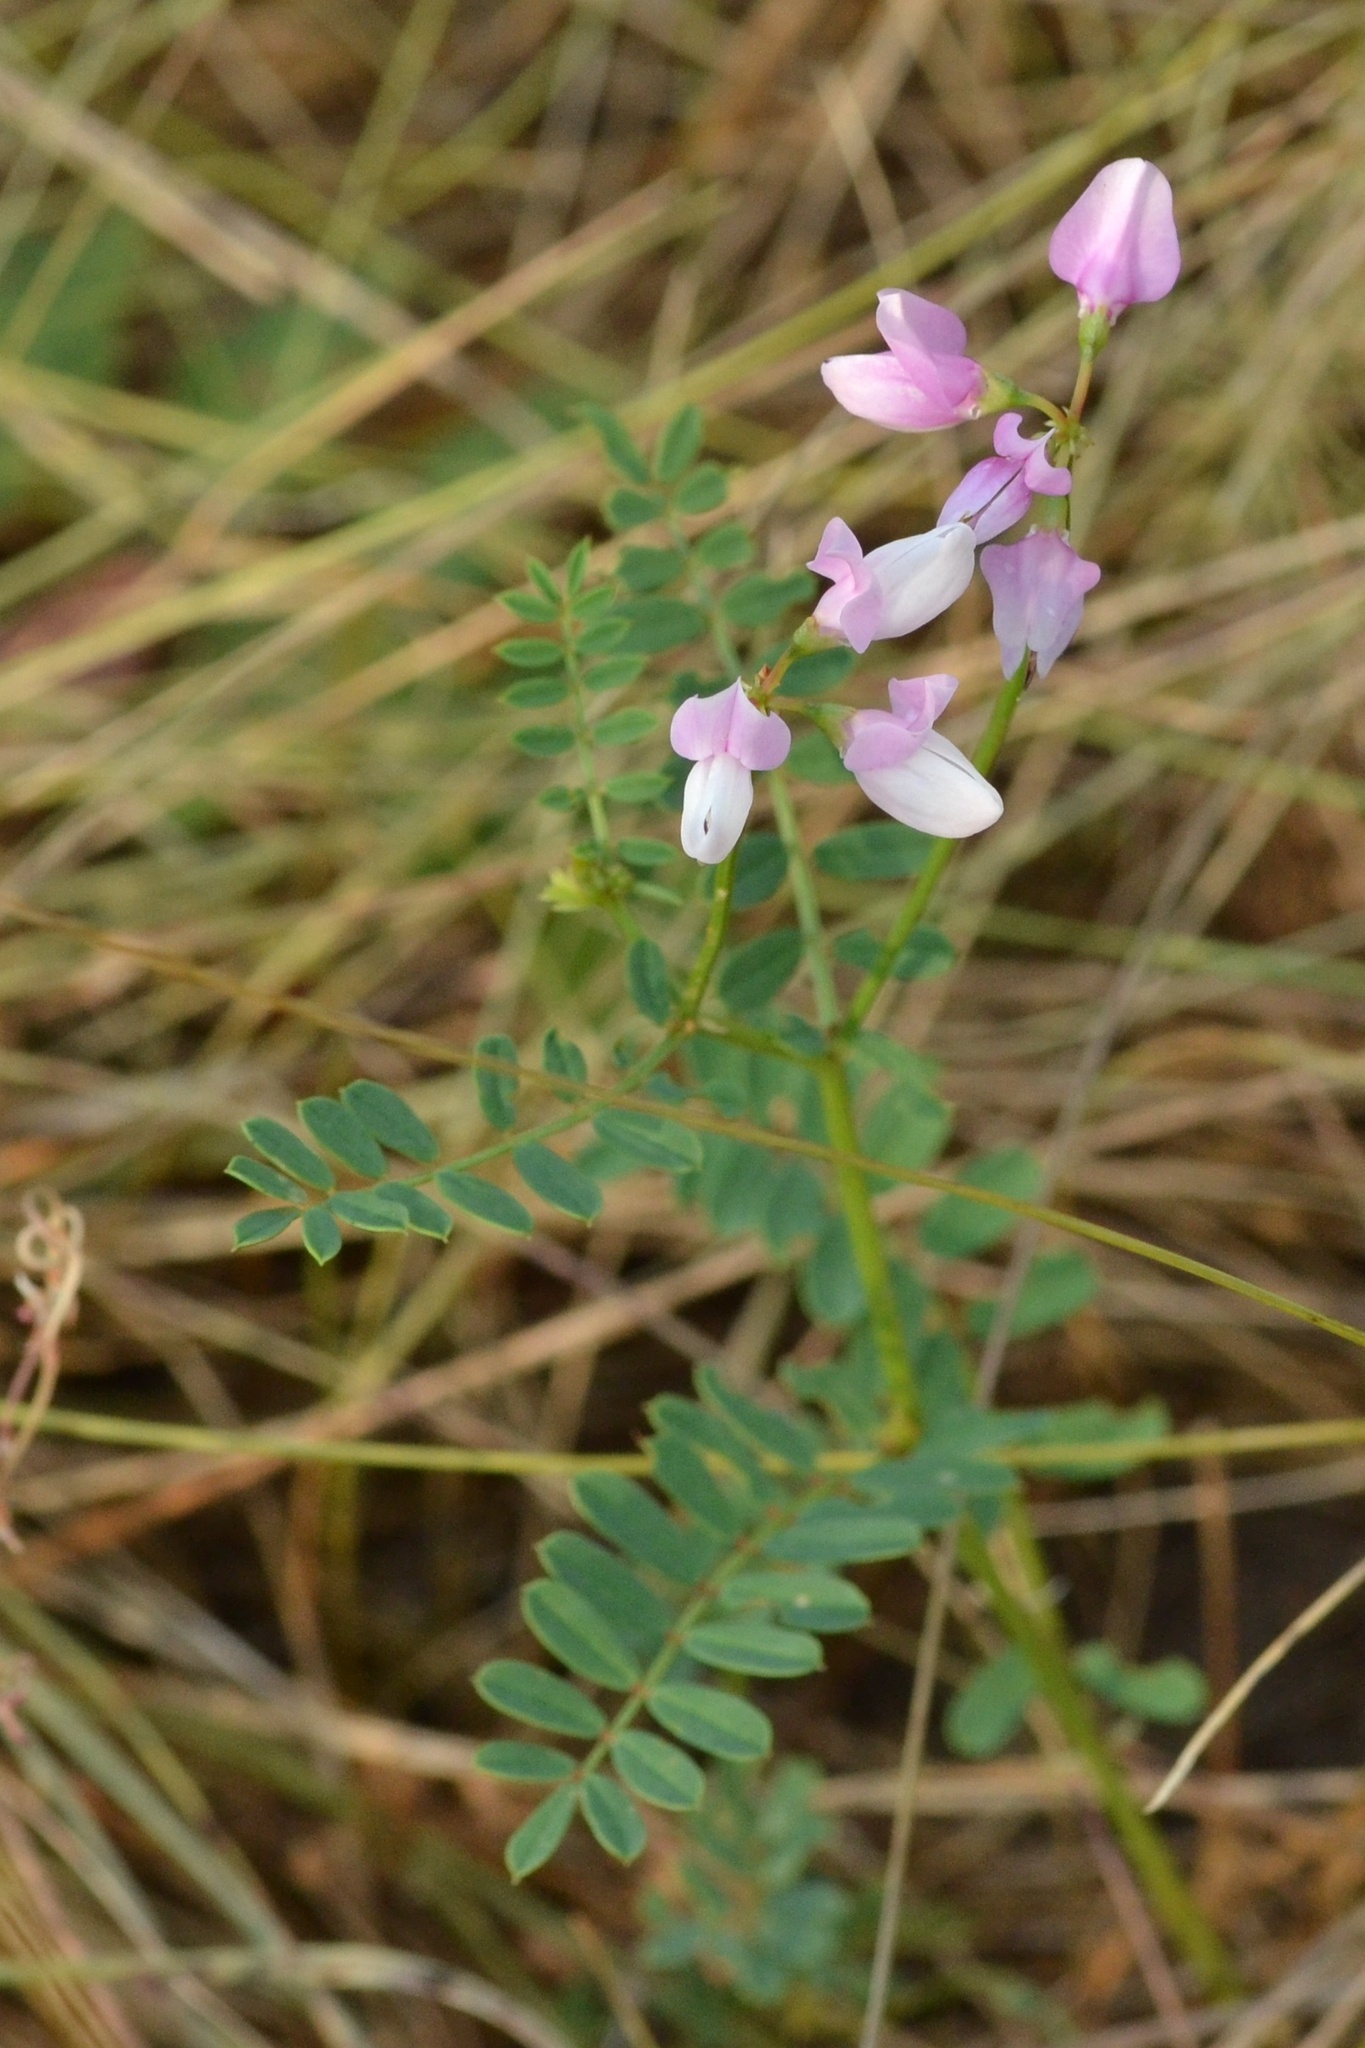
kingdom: Plantae
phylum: Tracheophyta
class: Magnoliopsida
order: Fabales
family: Fabaceae
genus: Coronilla
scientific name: Coronilla varia
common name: Crownvetch
